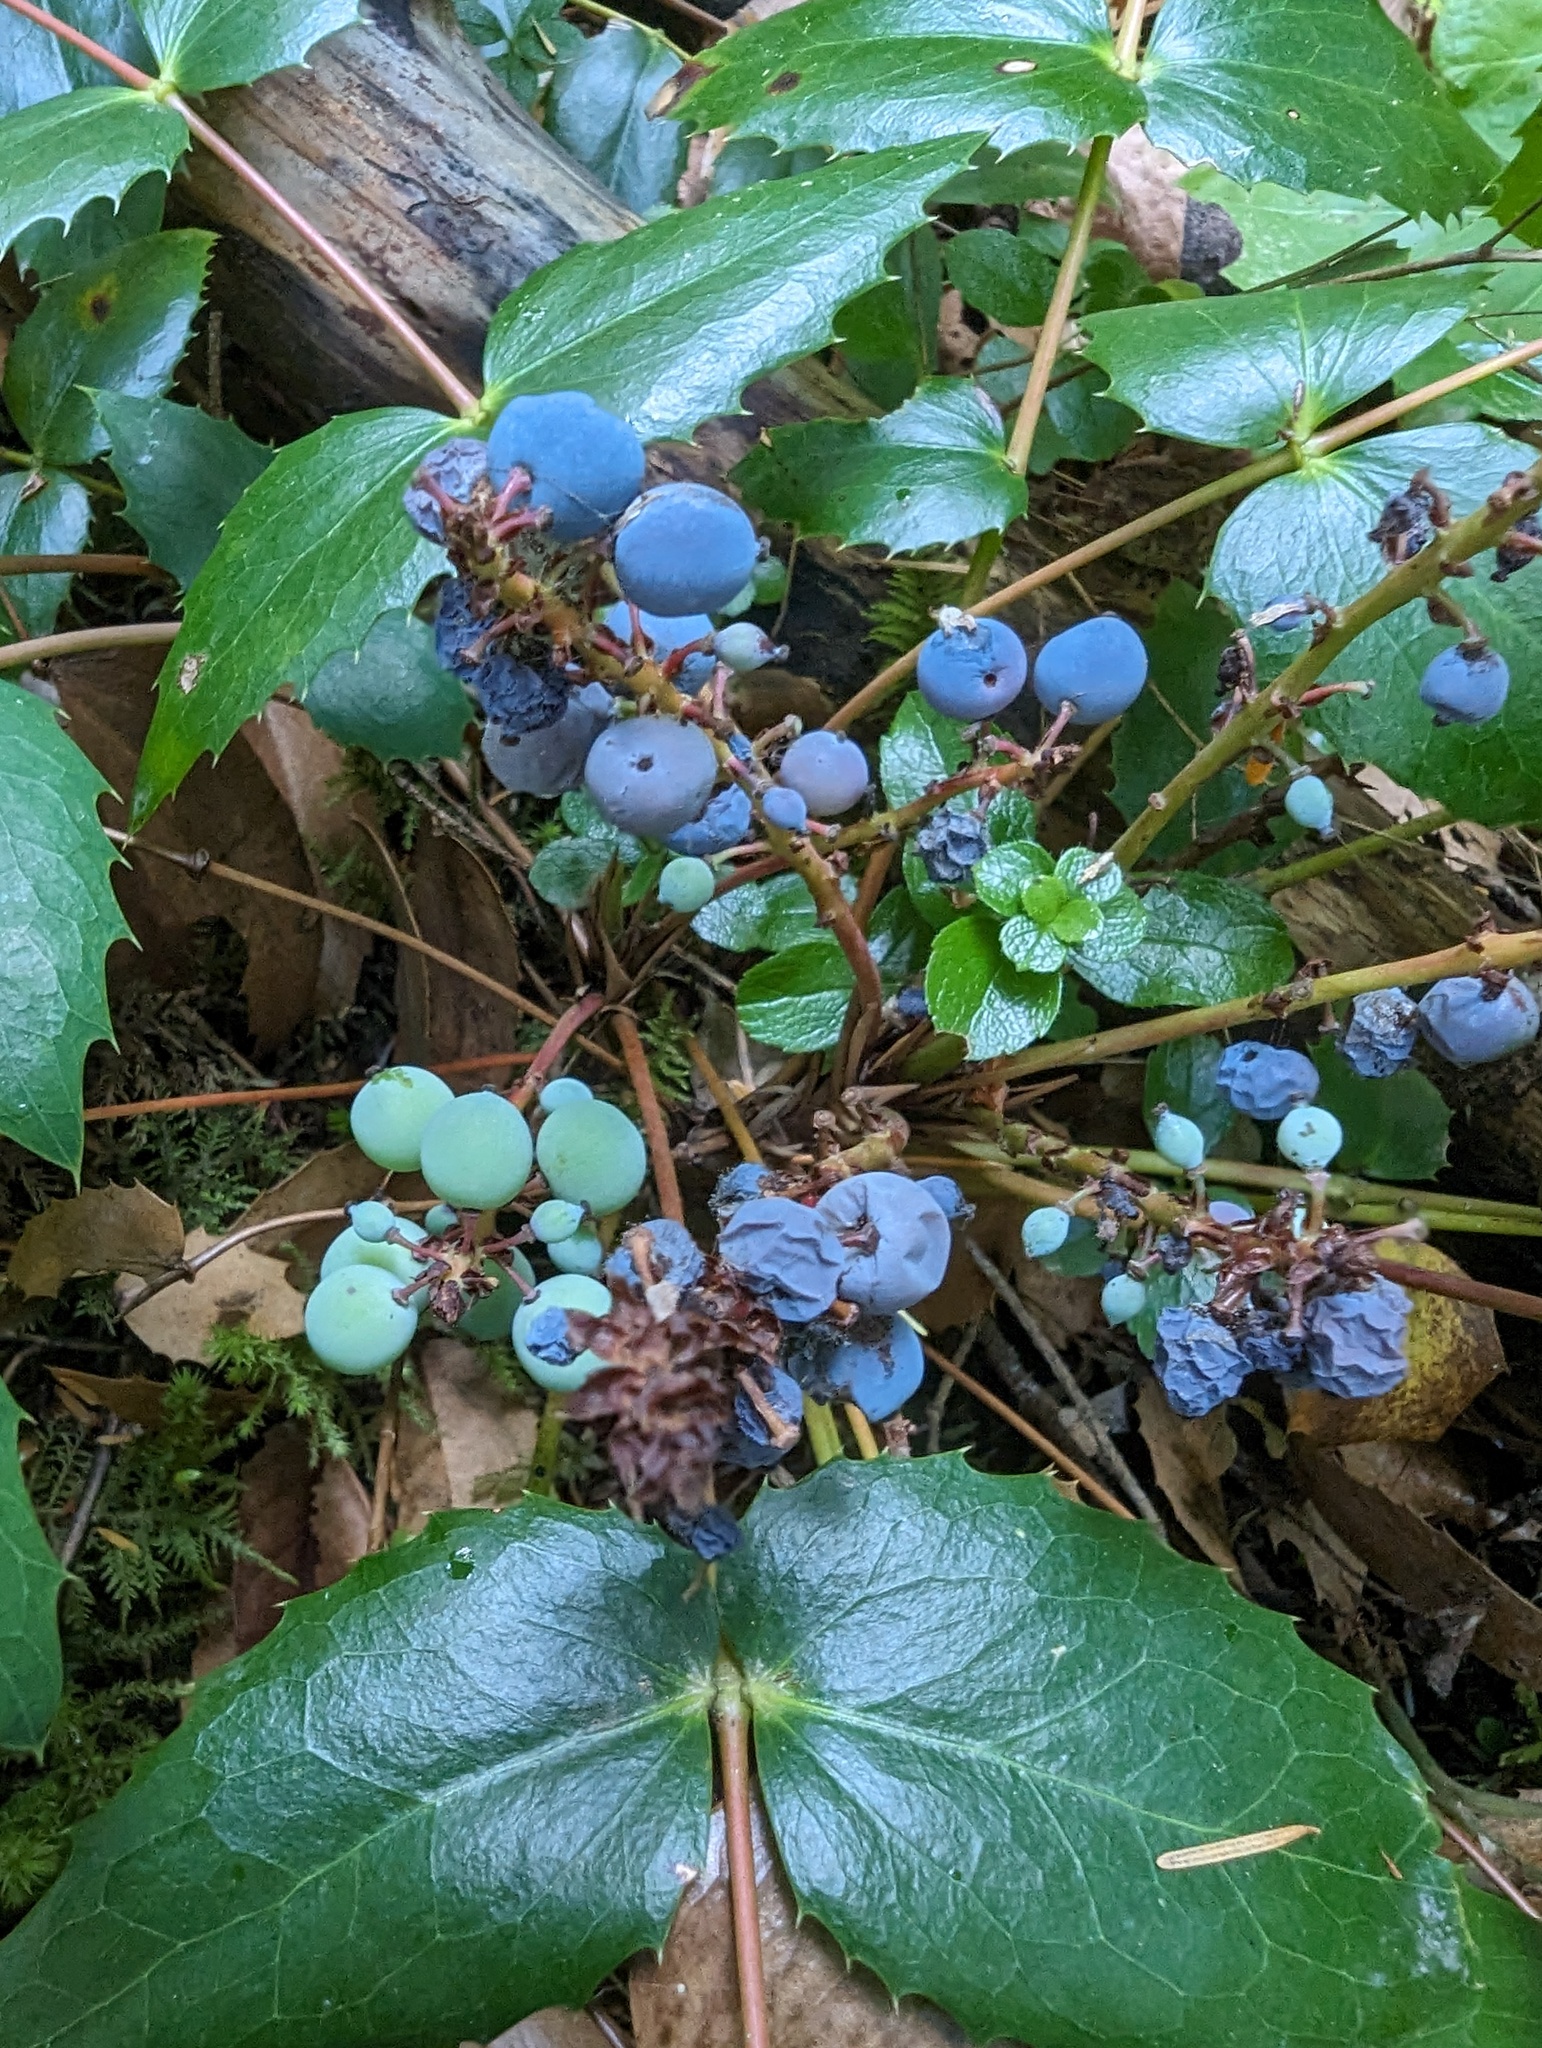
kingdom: Plantae
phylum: Tracheophyta
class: Magnoliopsida
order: Ranunculales
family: Berberidaceae
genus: Mahonia
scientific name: Mahonia nervosa
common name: Cascade oregon-grape
